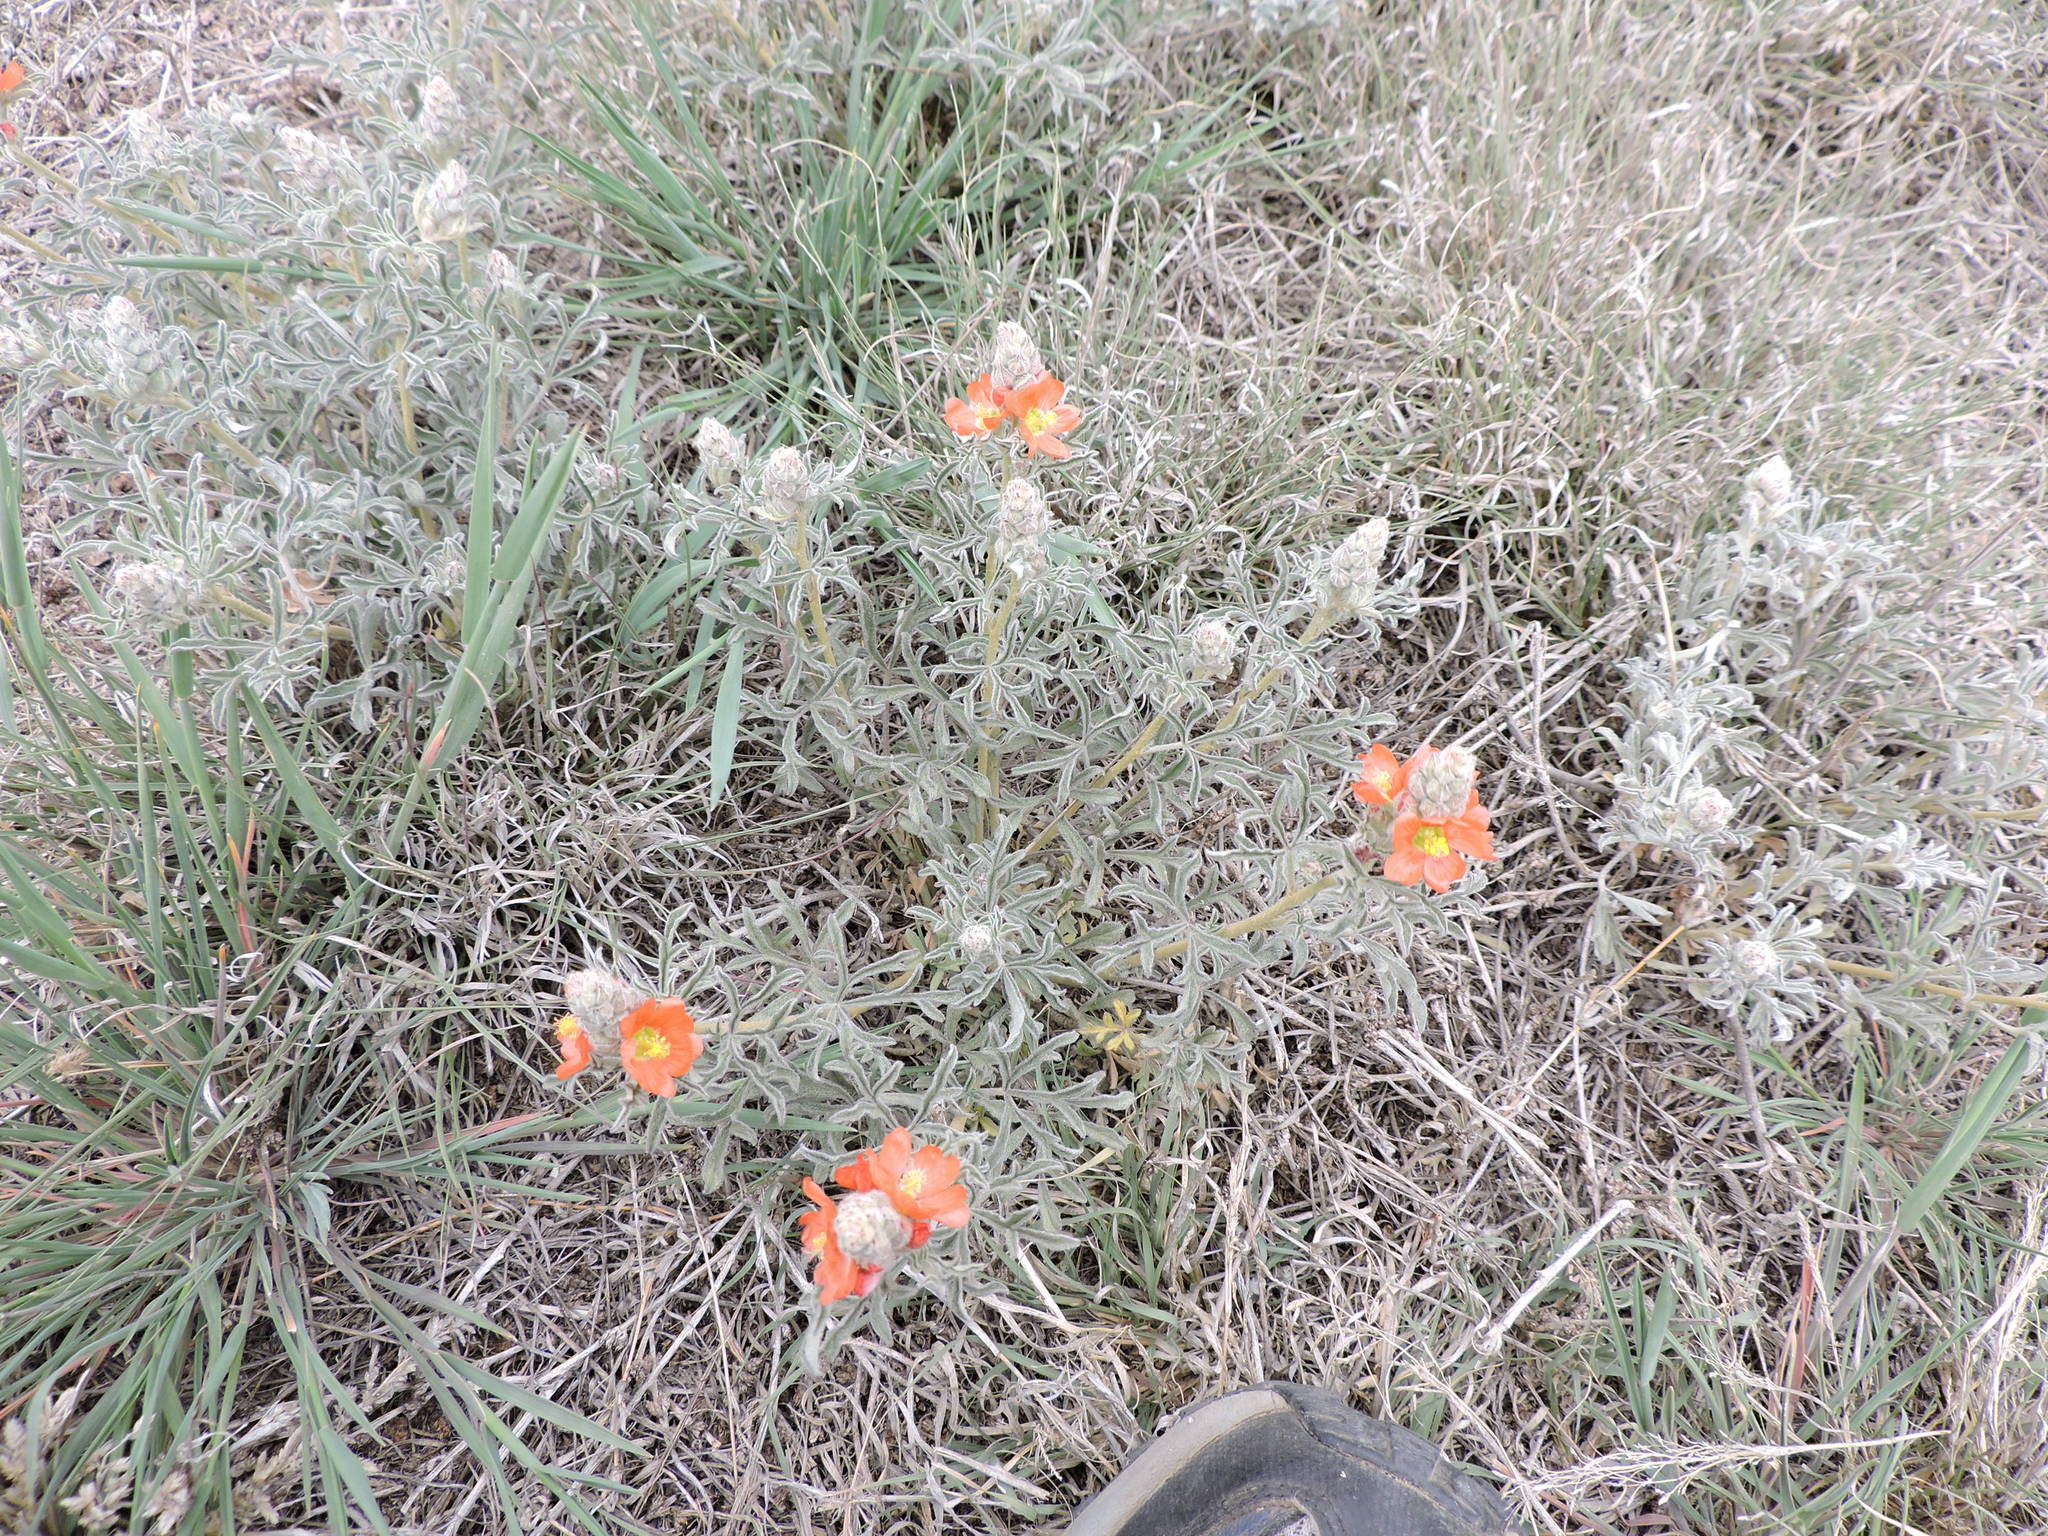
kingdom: Plantae
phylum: Tracheophyta
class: Magnoliopsida
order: Malvales
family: Malvaceae
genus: Sphaeralcea
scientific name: Sphaeralcea coccinea
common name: Moss-rose
